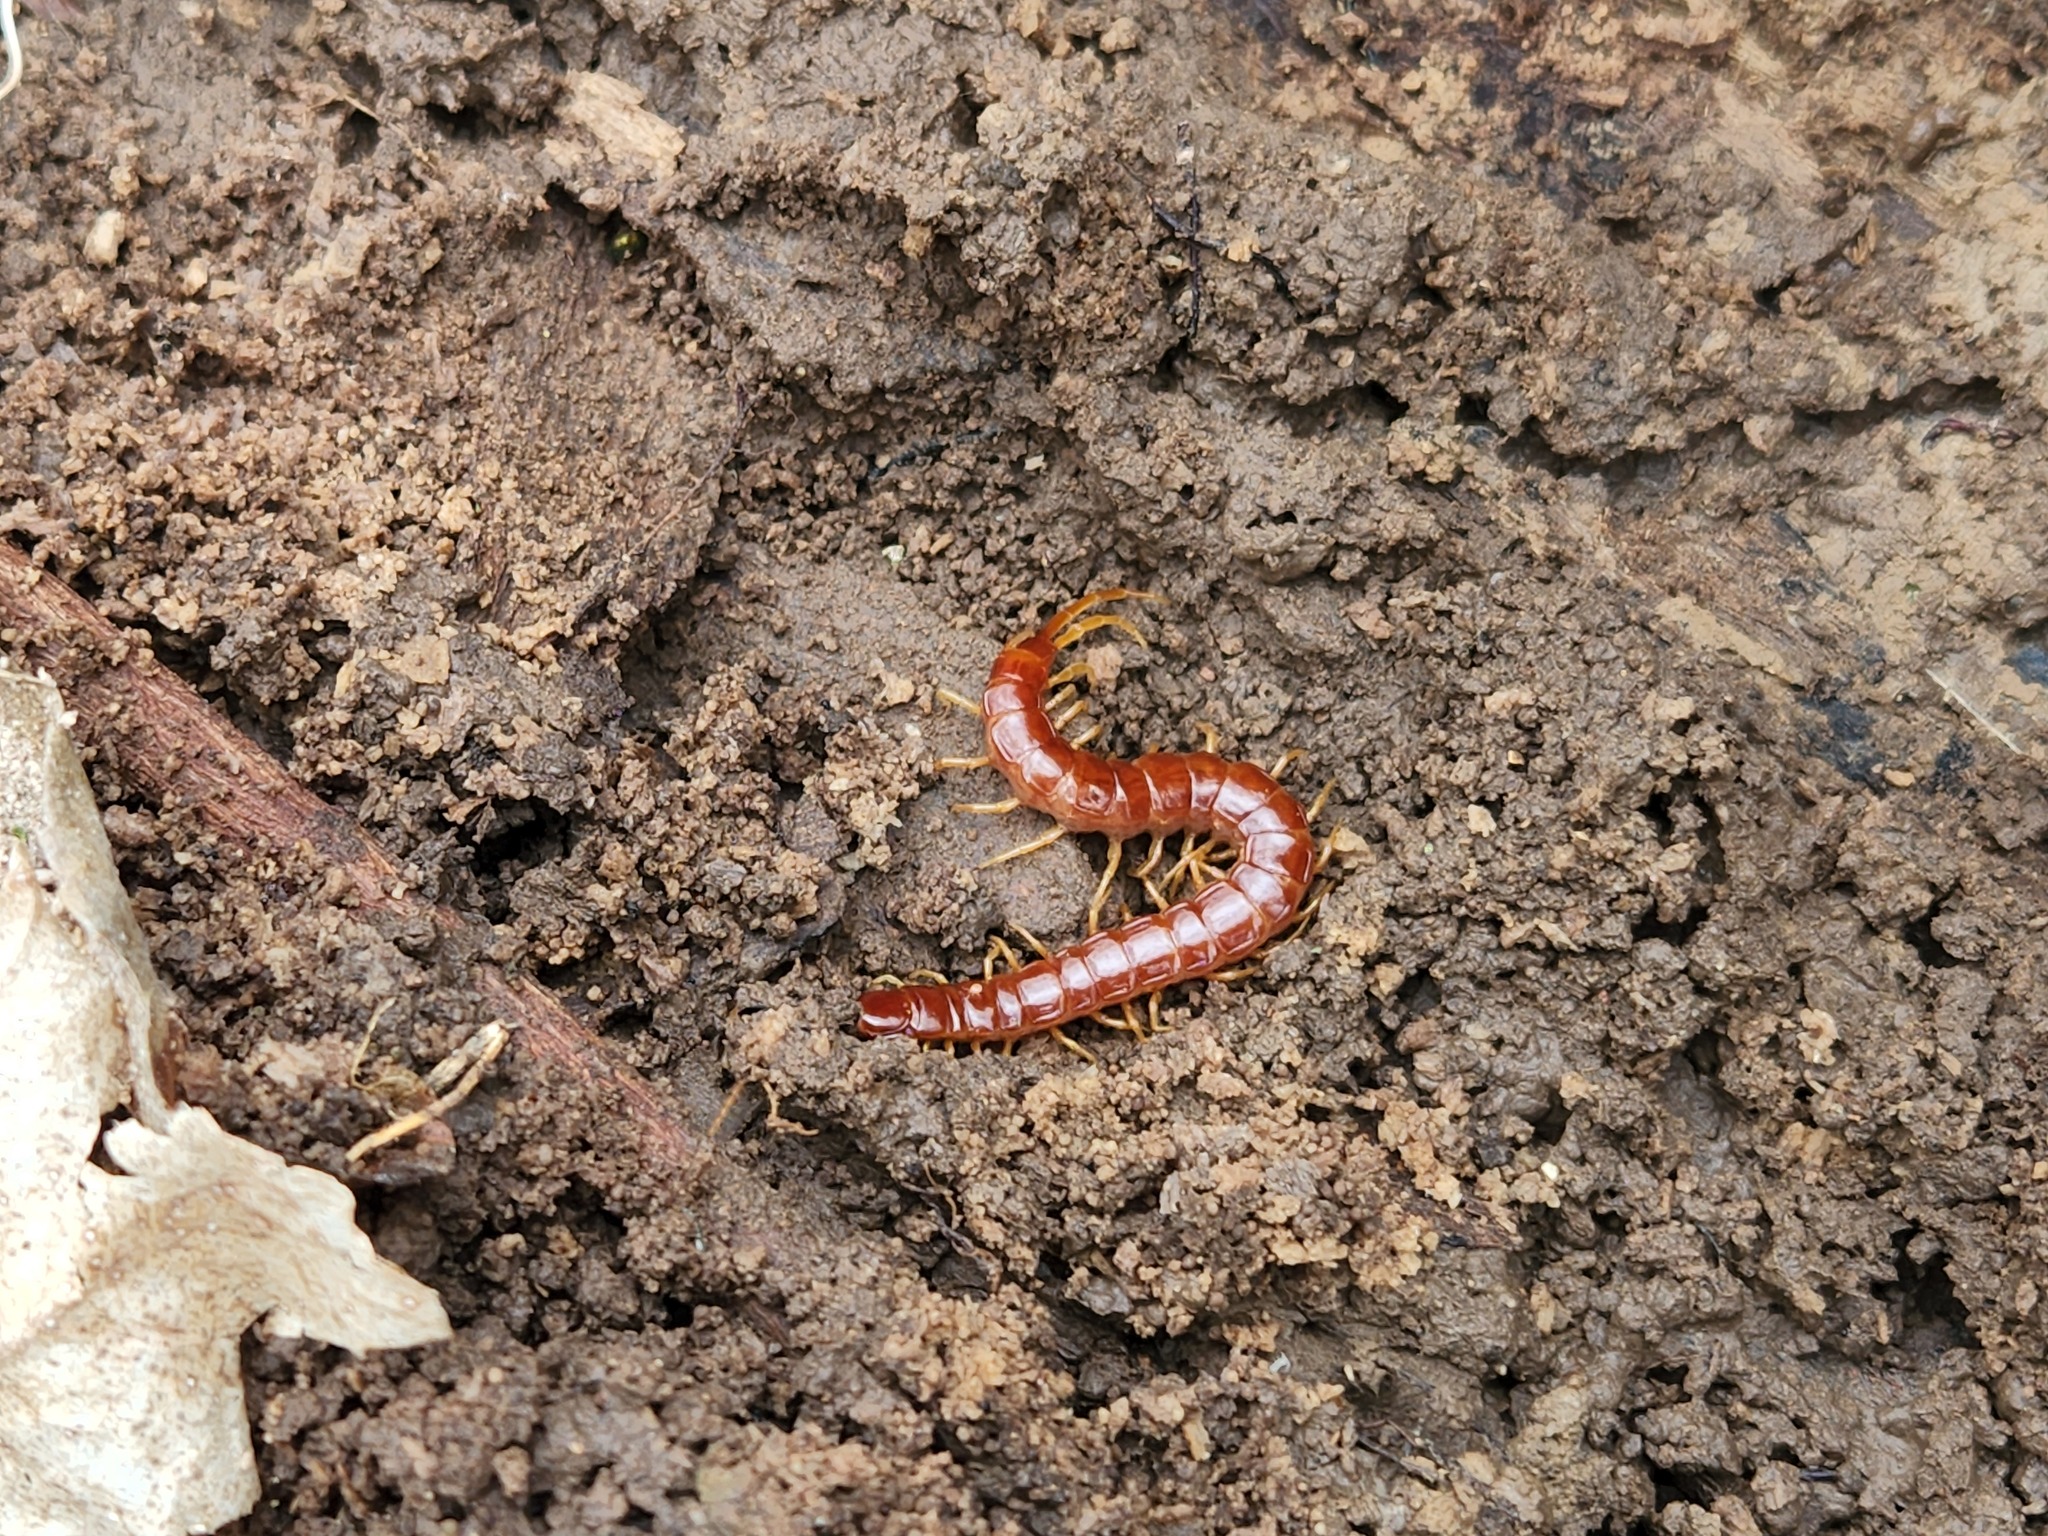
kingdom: Animalia
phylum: Arthropoda
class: Chilopoda
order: Scolopendromorpha
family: Scolopocryptopidae
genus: Scolopocryptops
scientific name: Scolopocryptops sexspinosus
